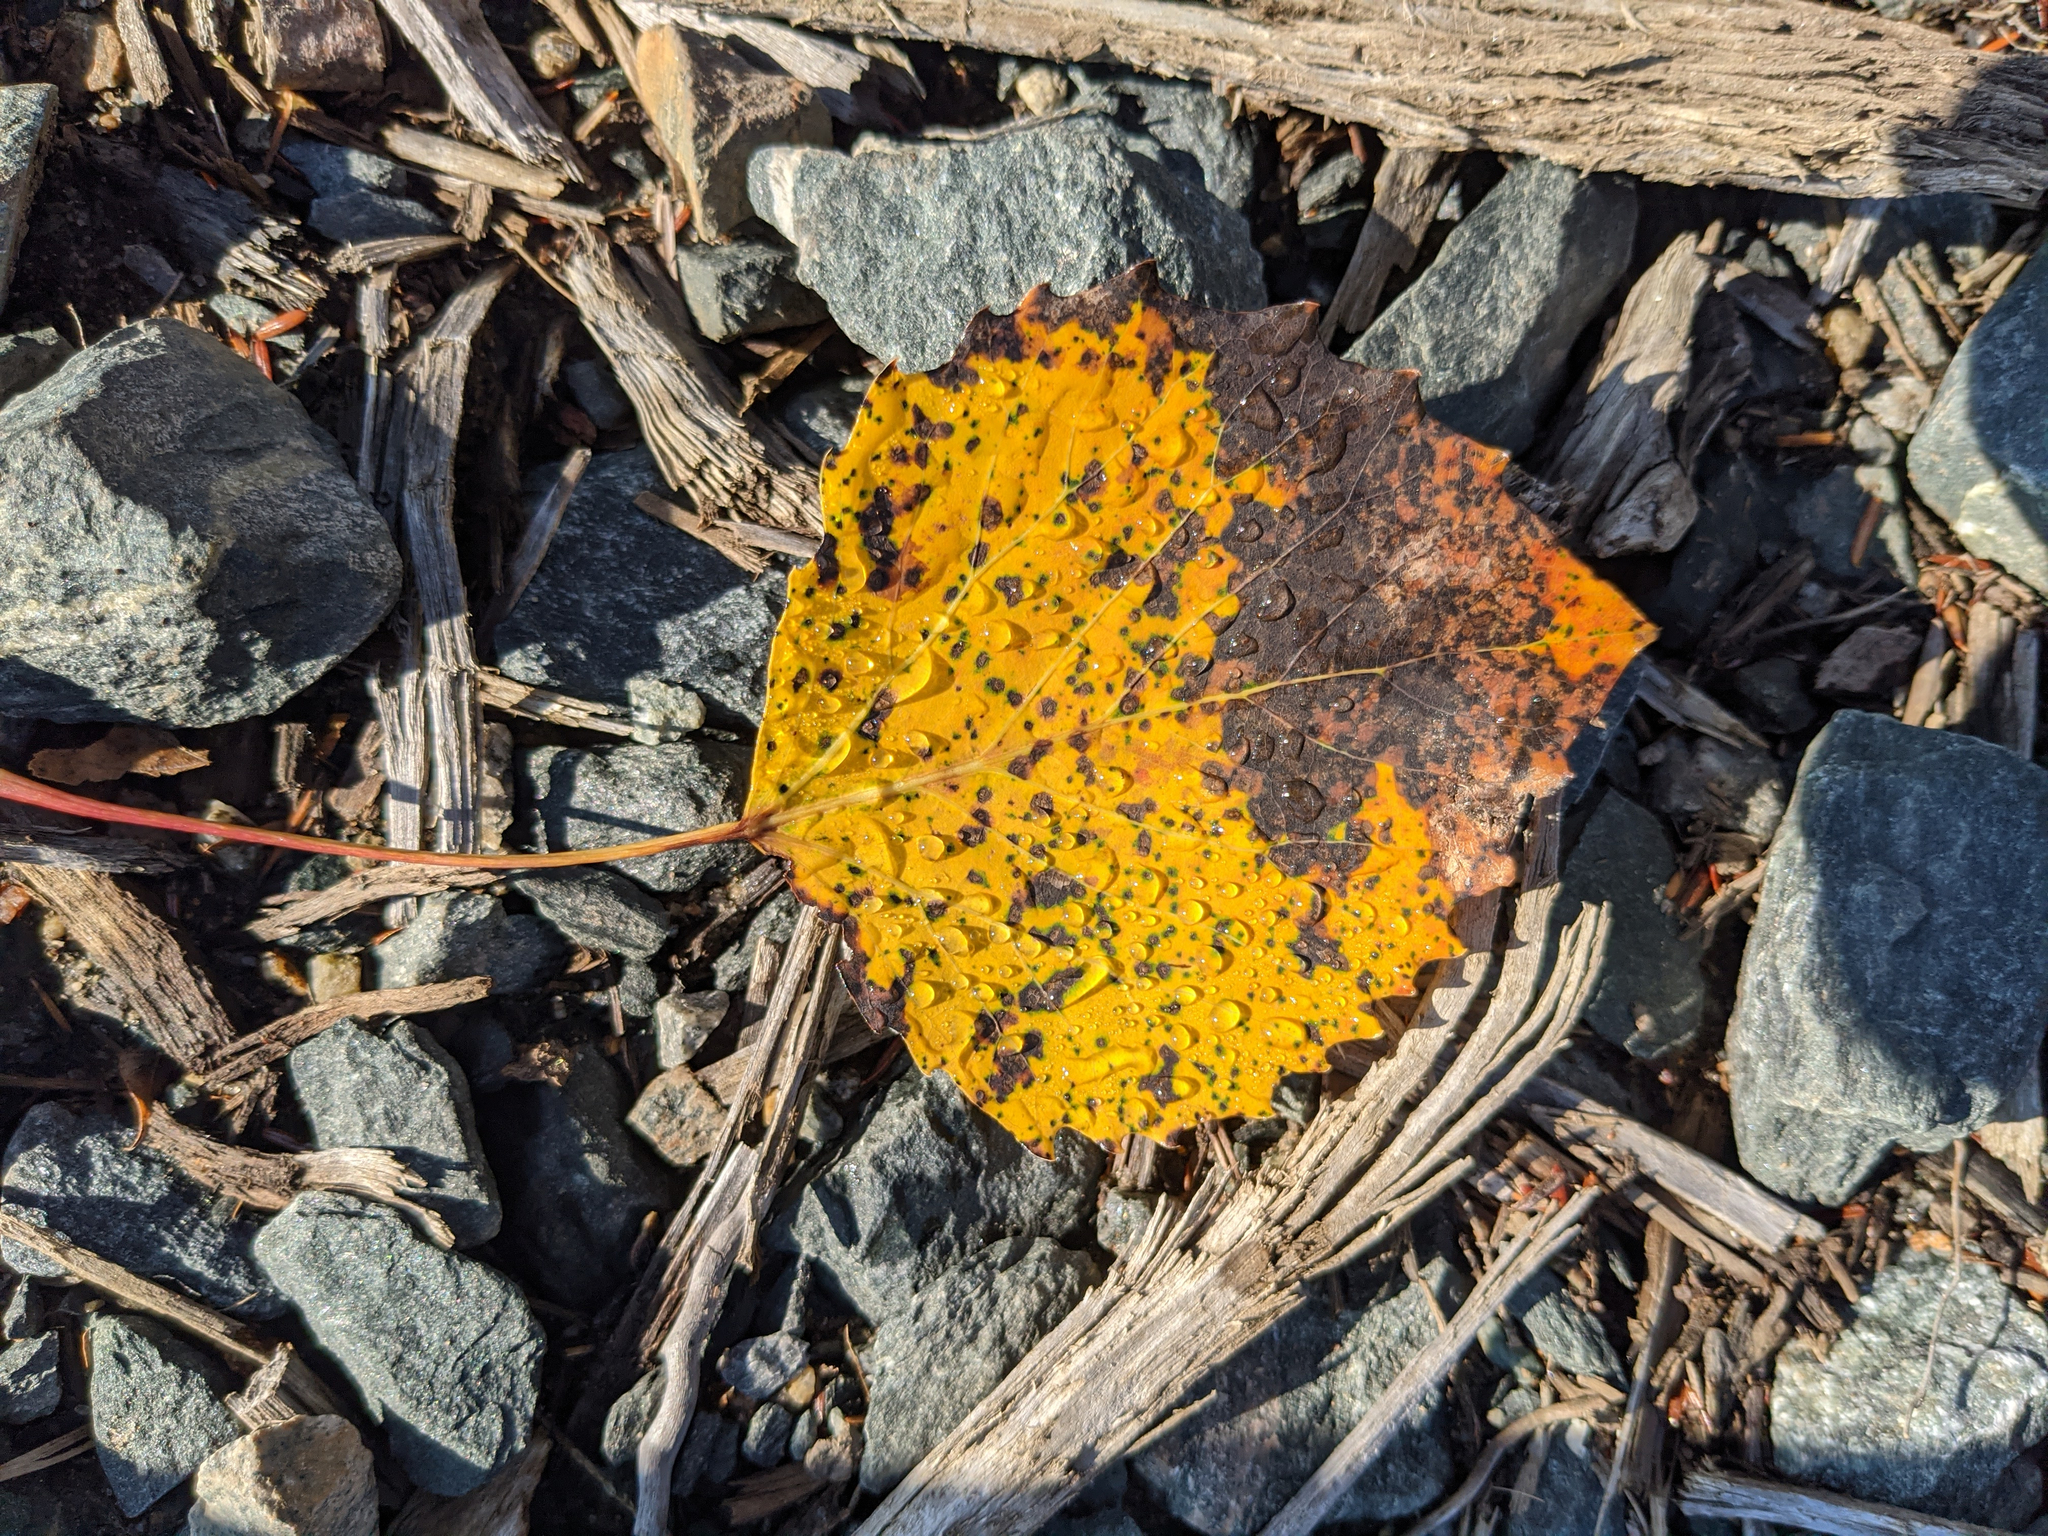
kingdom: Plantae
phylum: Tracheophyta
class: Magnoliopsida
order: Malpighiales
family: Salicaceae
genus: Populus
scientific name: Populus grandidentata
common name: Bigtooth aspen
